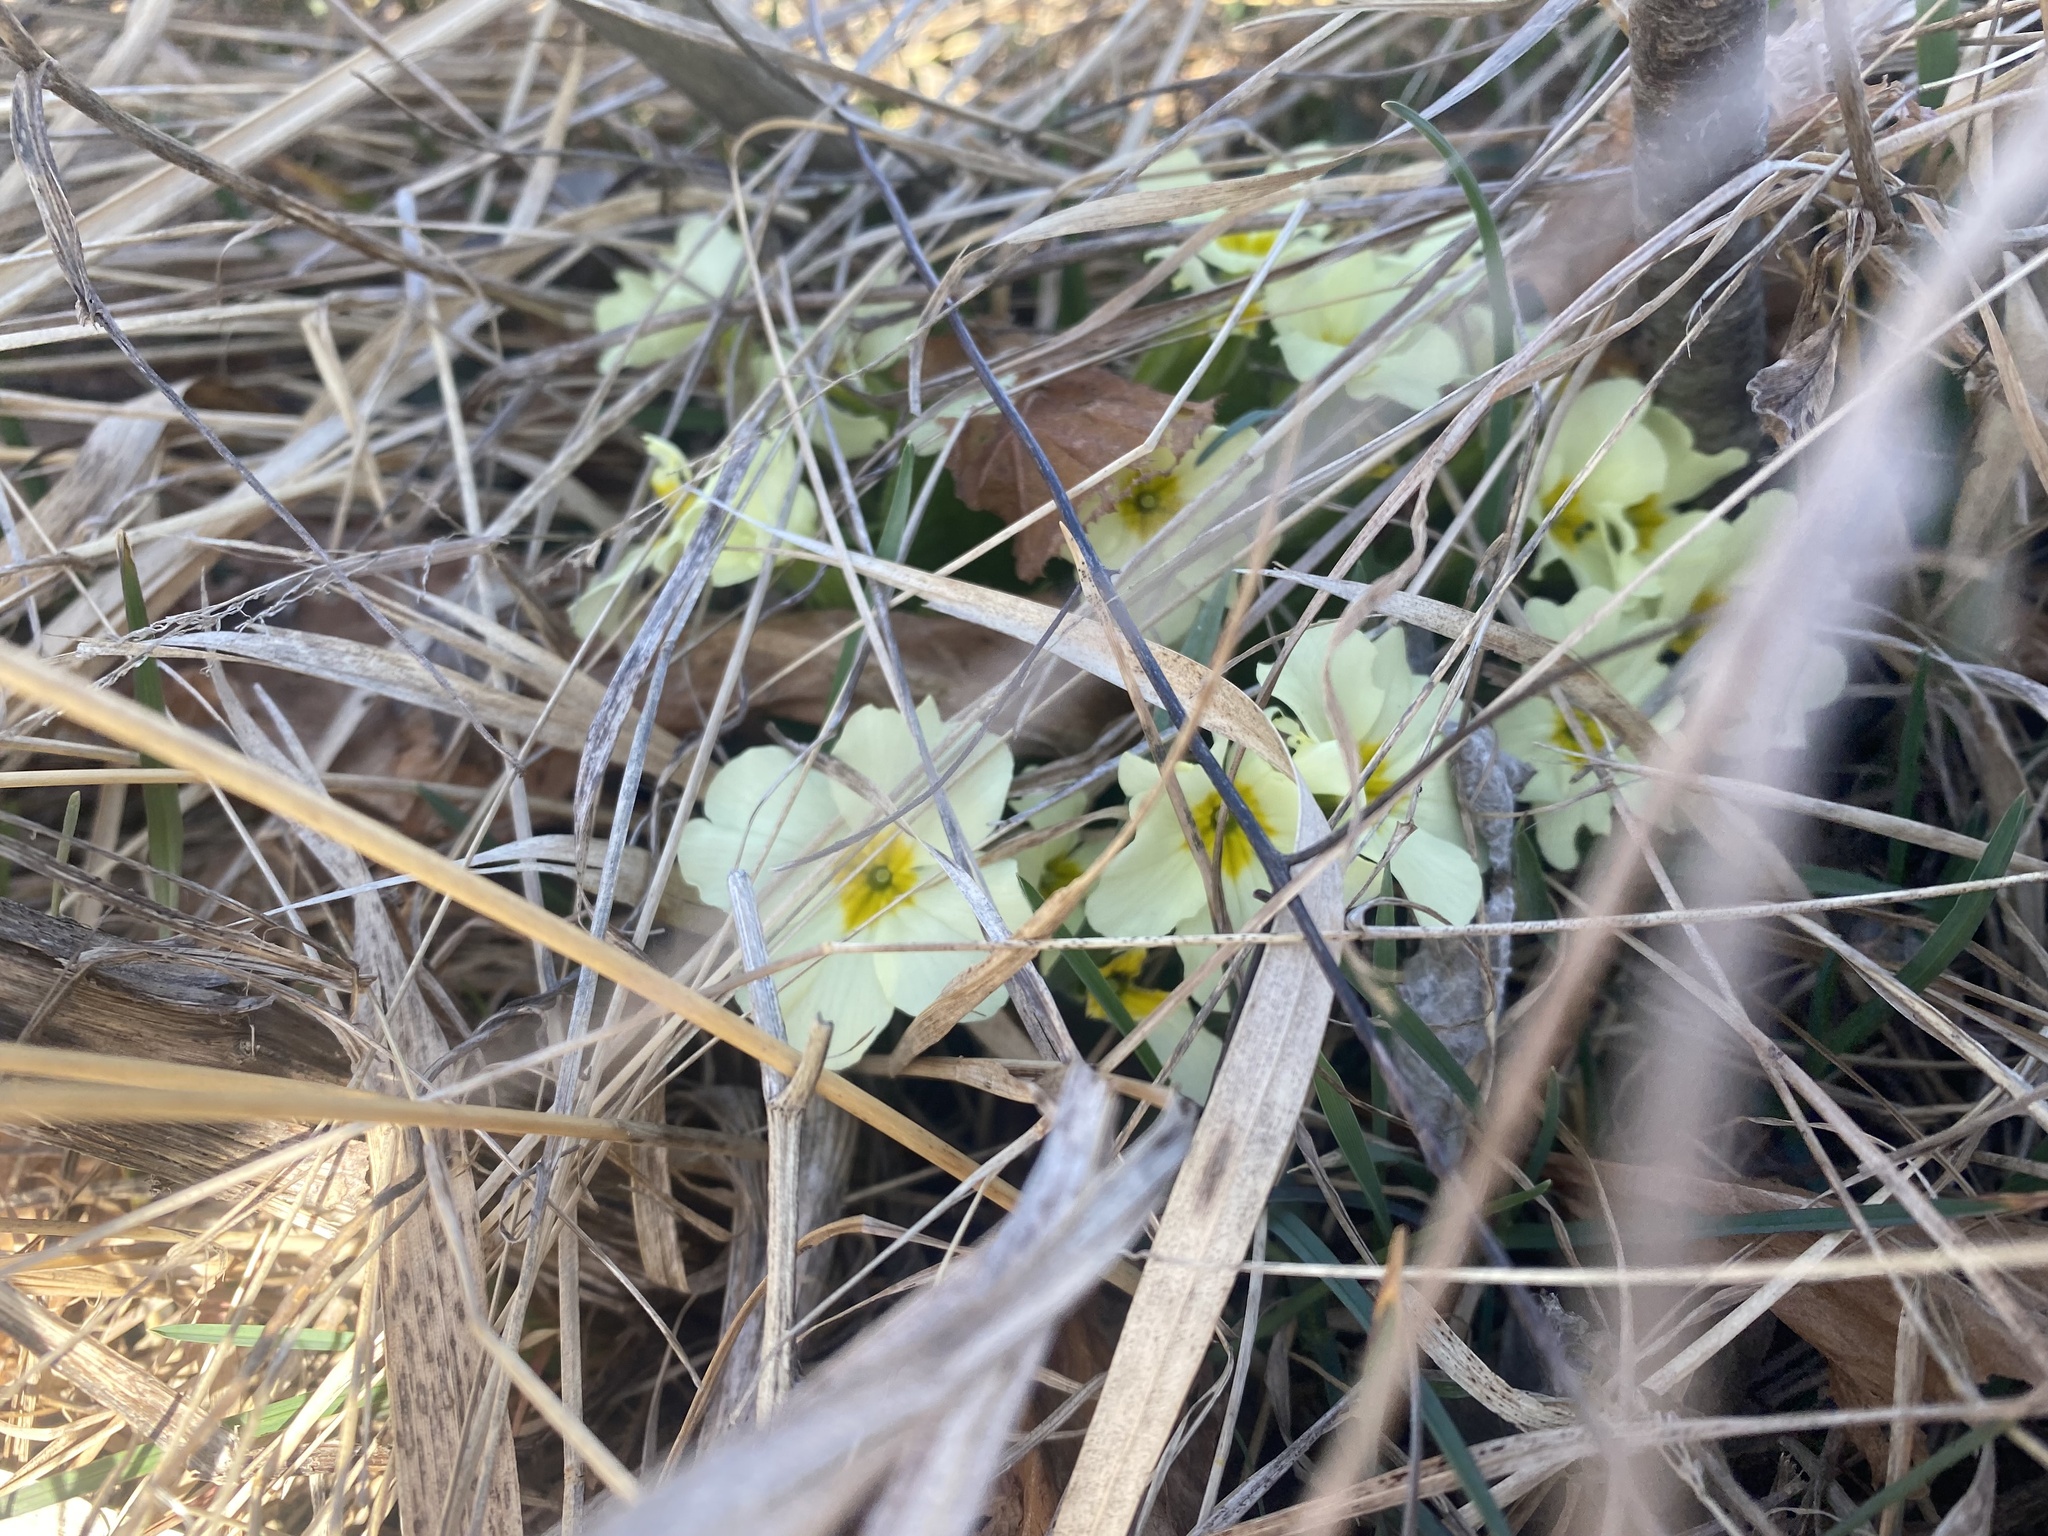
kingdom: Plantae
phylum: Tracheophyta
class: Magnoliopsida
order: Ericales
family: Primulaceae
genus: Primula
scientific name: Primula vulgaris
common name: Primrose
